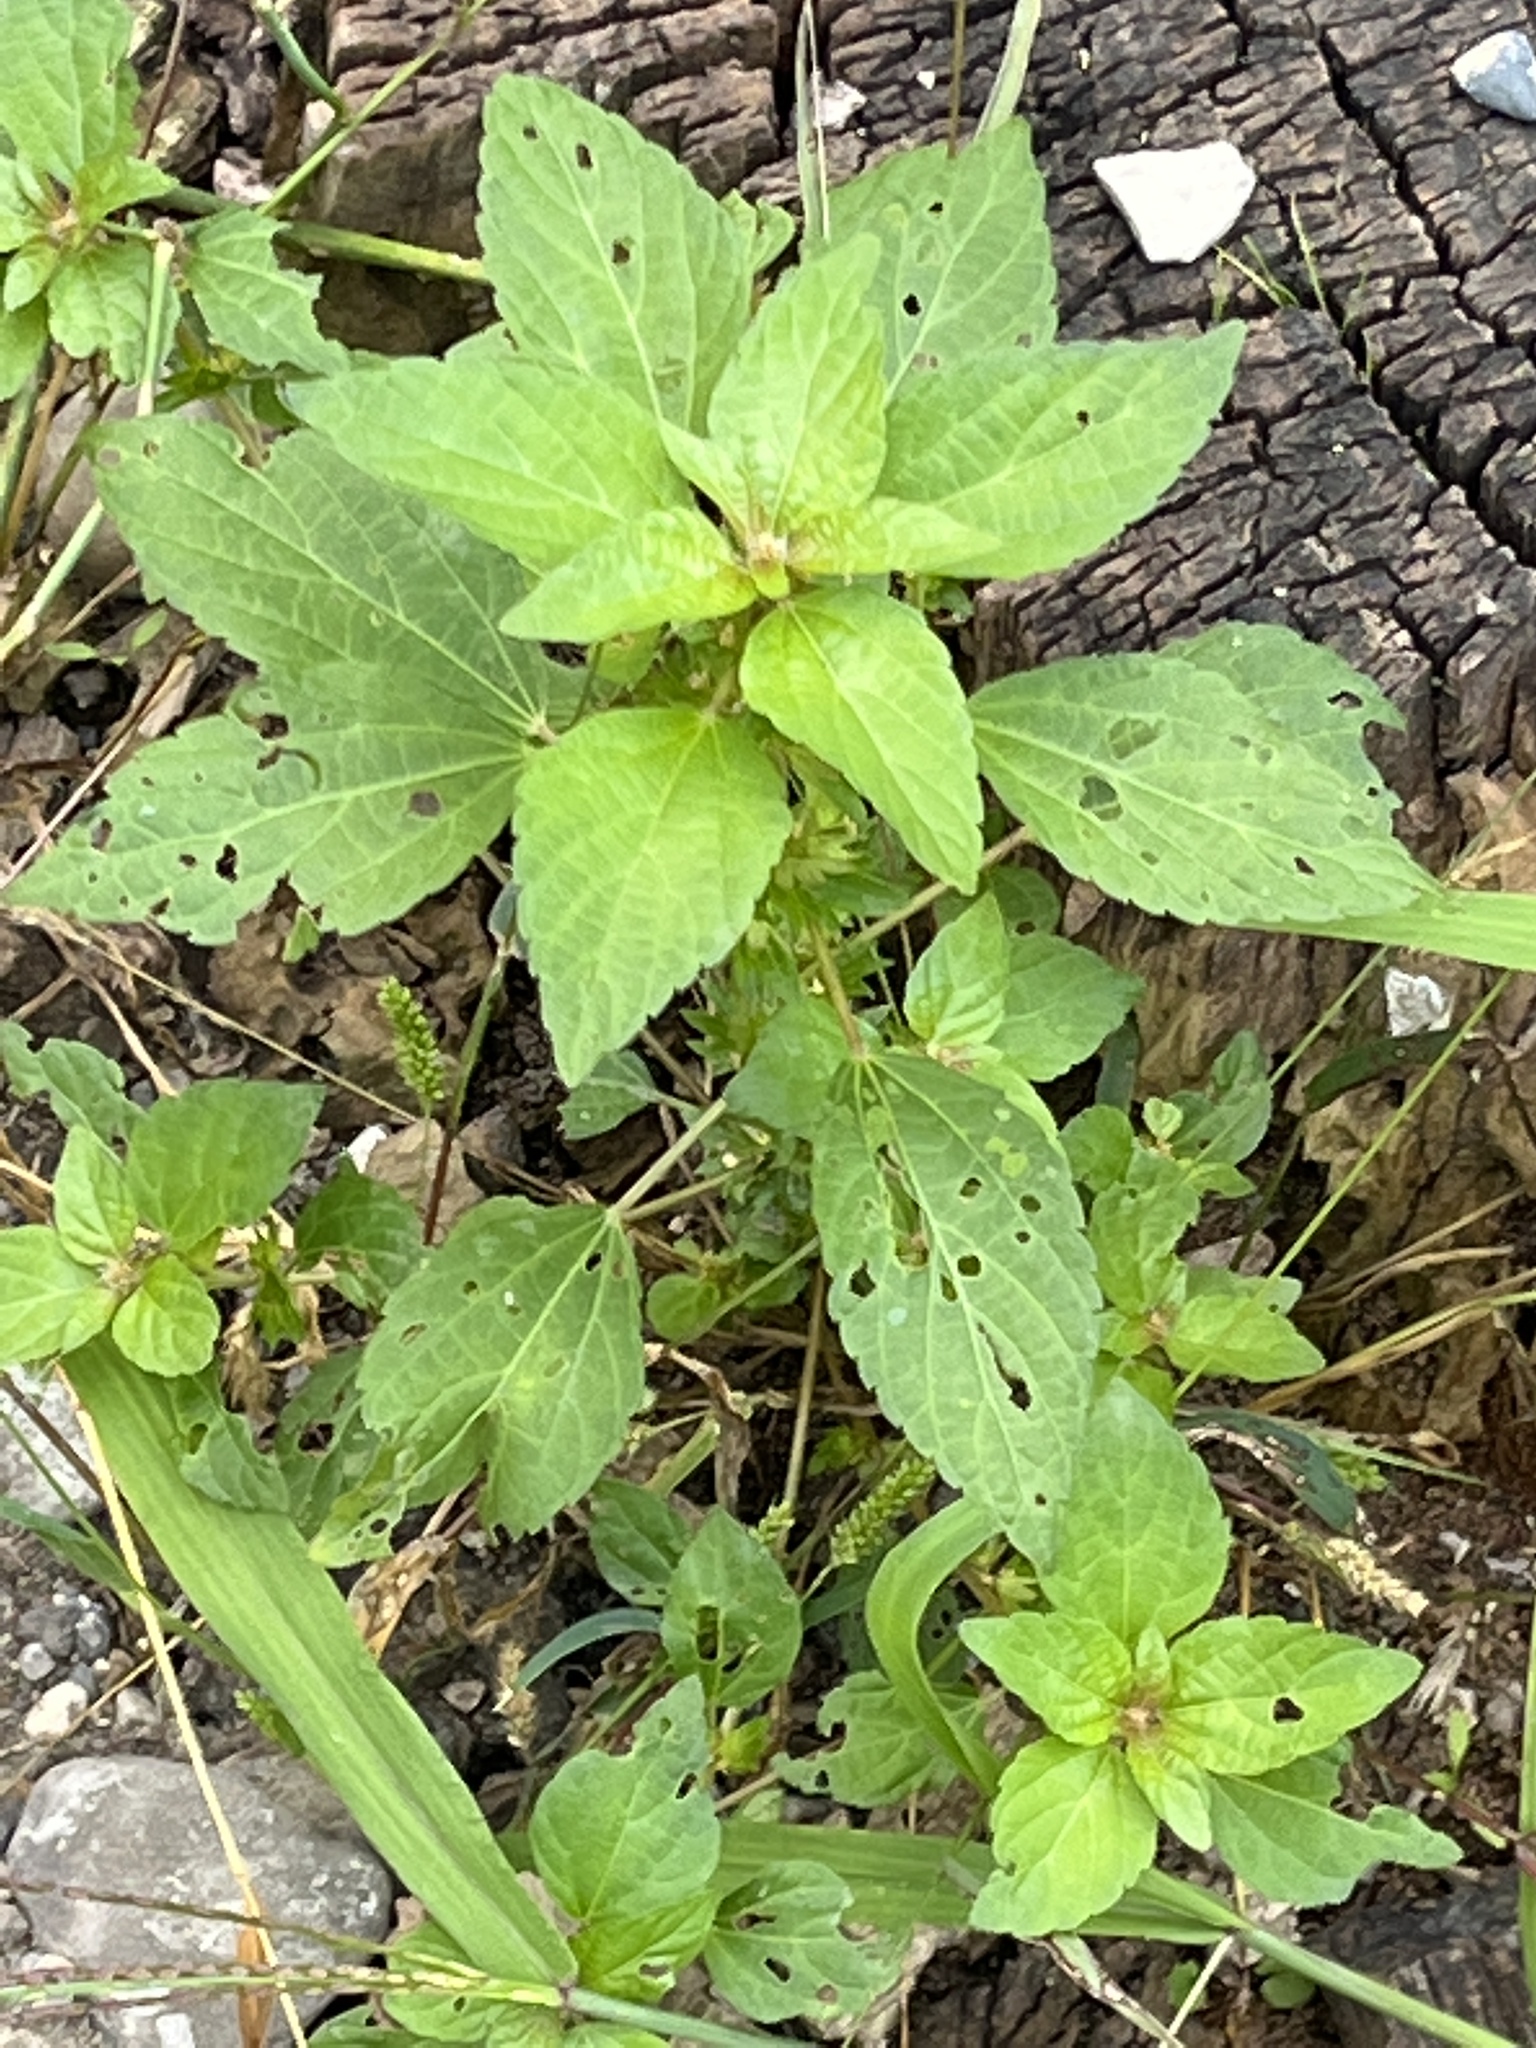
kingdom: Plantae
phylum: Tracheophyta
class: Magnoliopsida
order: Malpighiales
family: Euphorbiaceae
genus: Acalypha
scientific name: Acalypha rhomboidea
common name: Rhombic copperleaf
